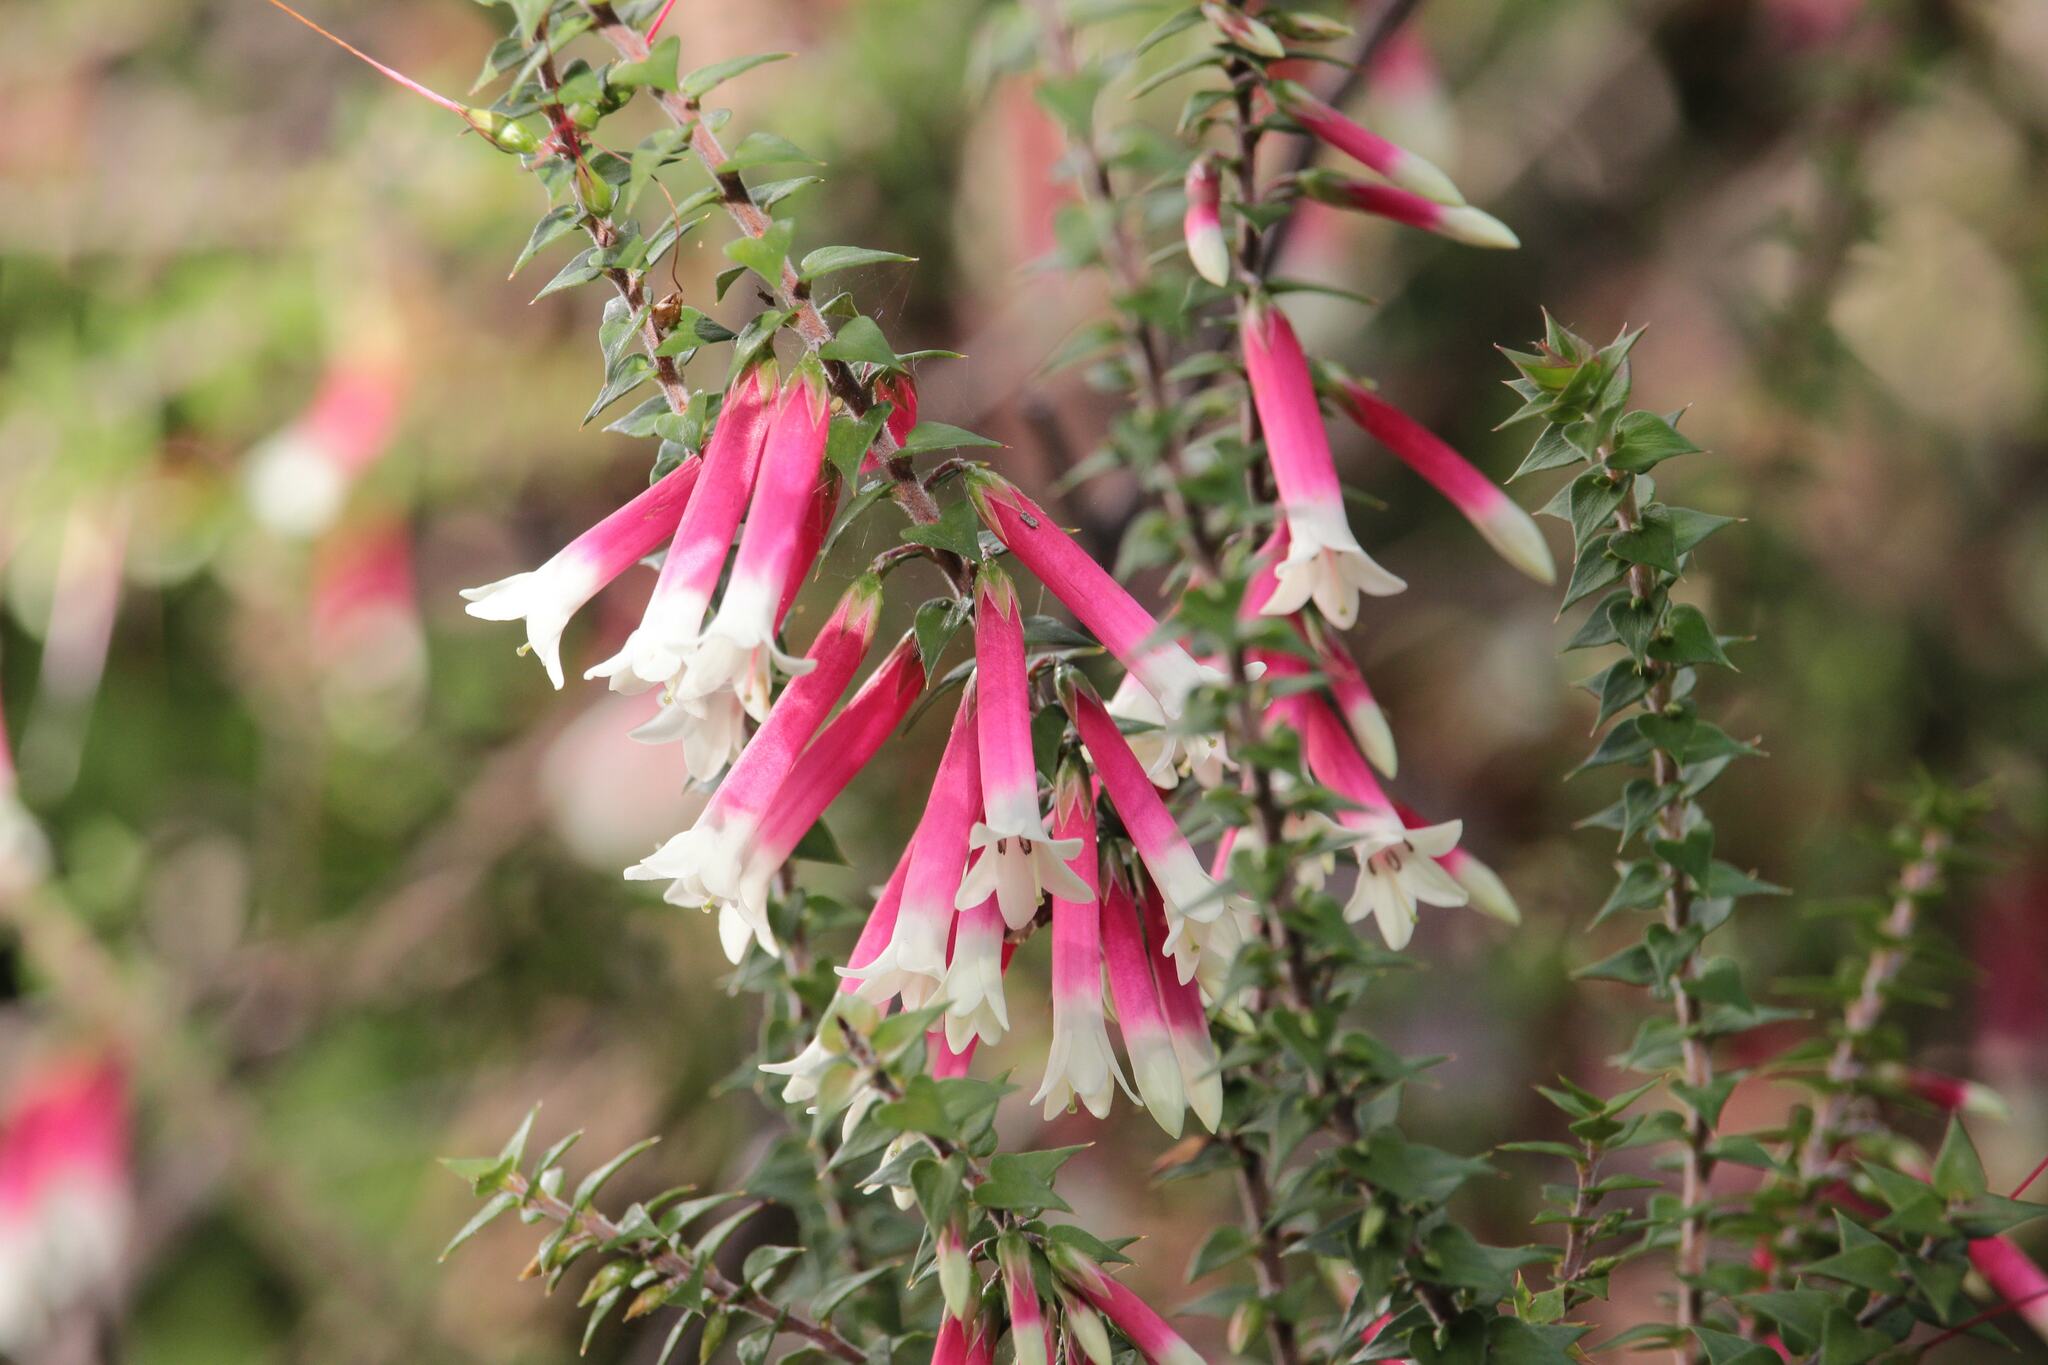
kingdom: Plantae
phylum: Tracheophyta
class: Magnoliopsida
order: Ericales
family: Ericaceae
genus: Epacris
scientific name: Epacris longiflora
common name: Fuchsia-heath
